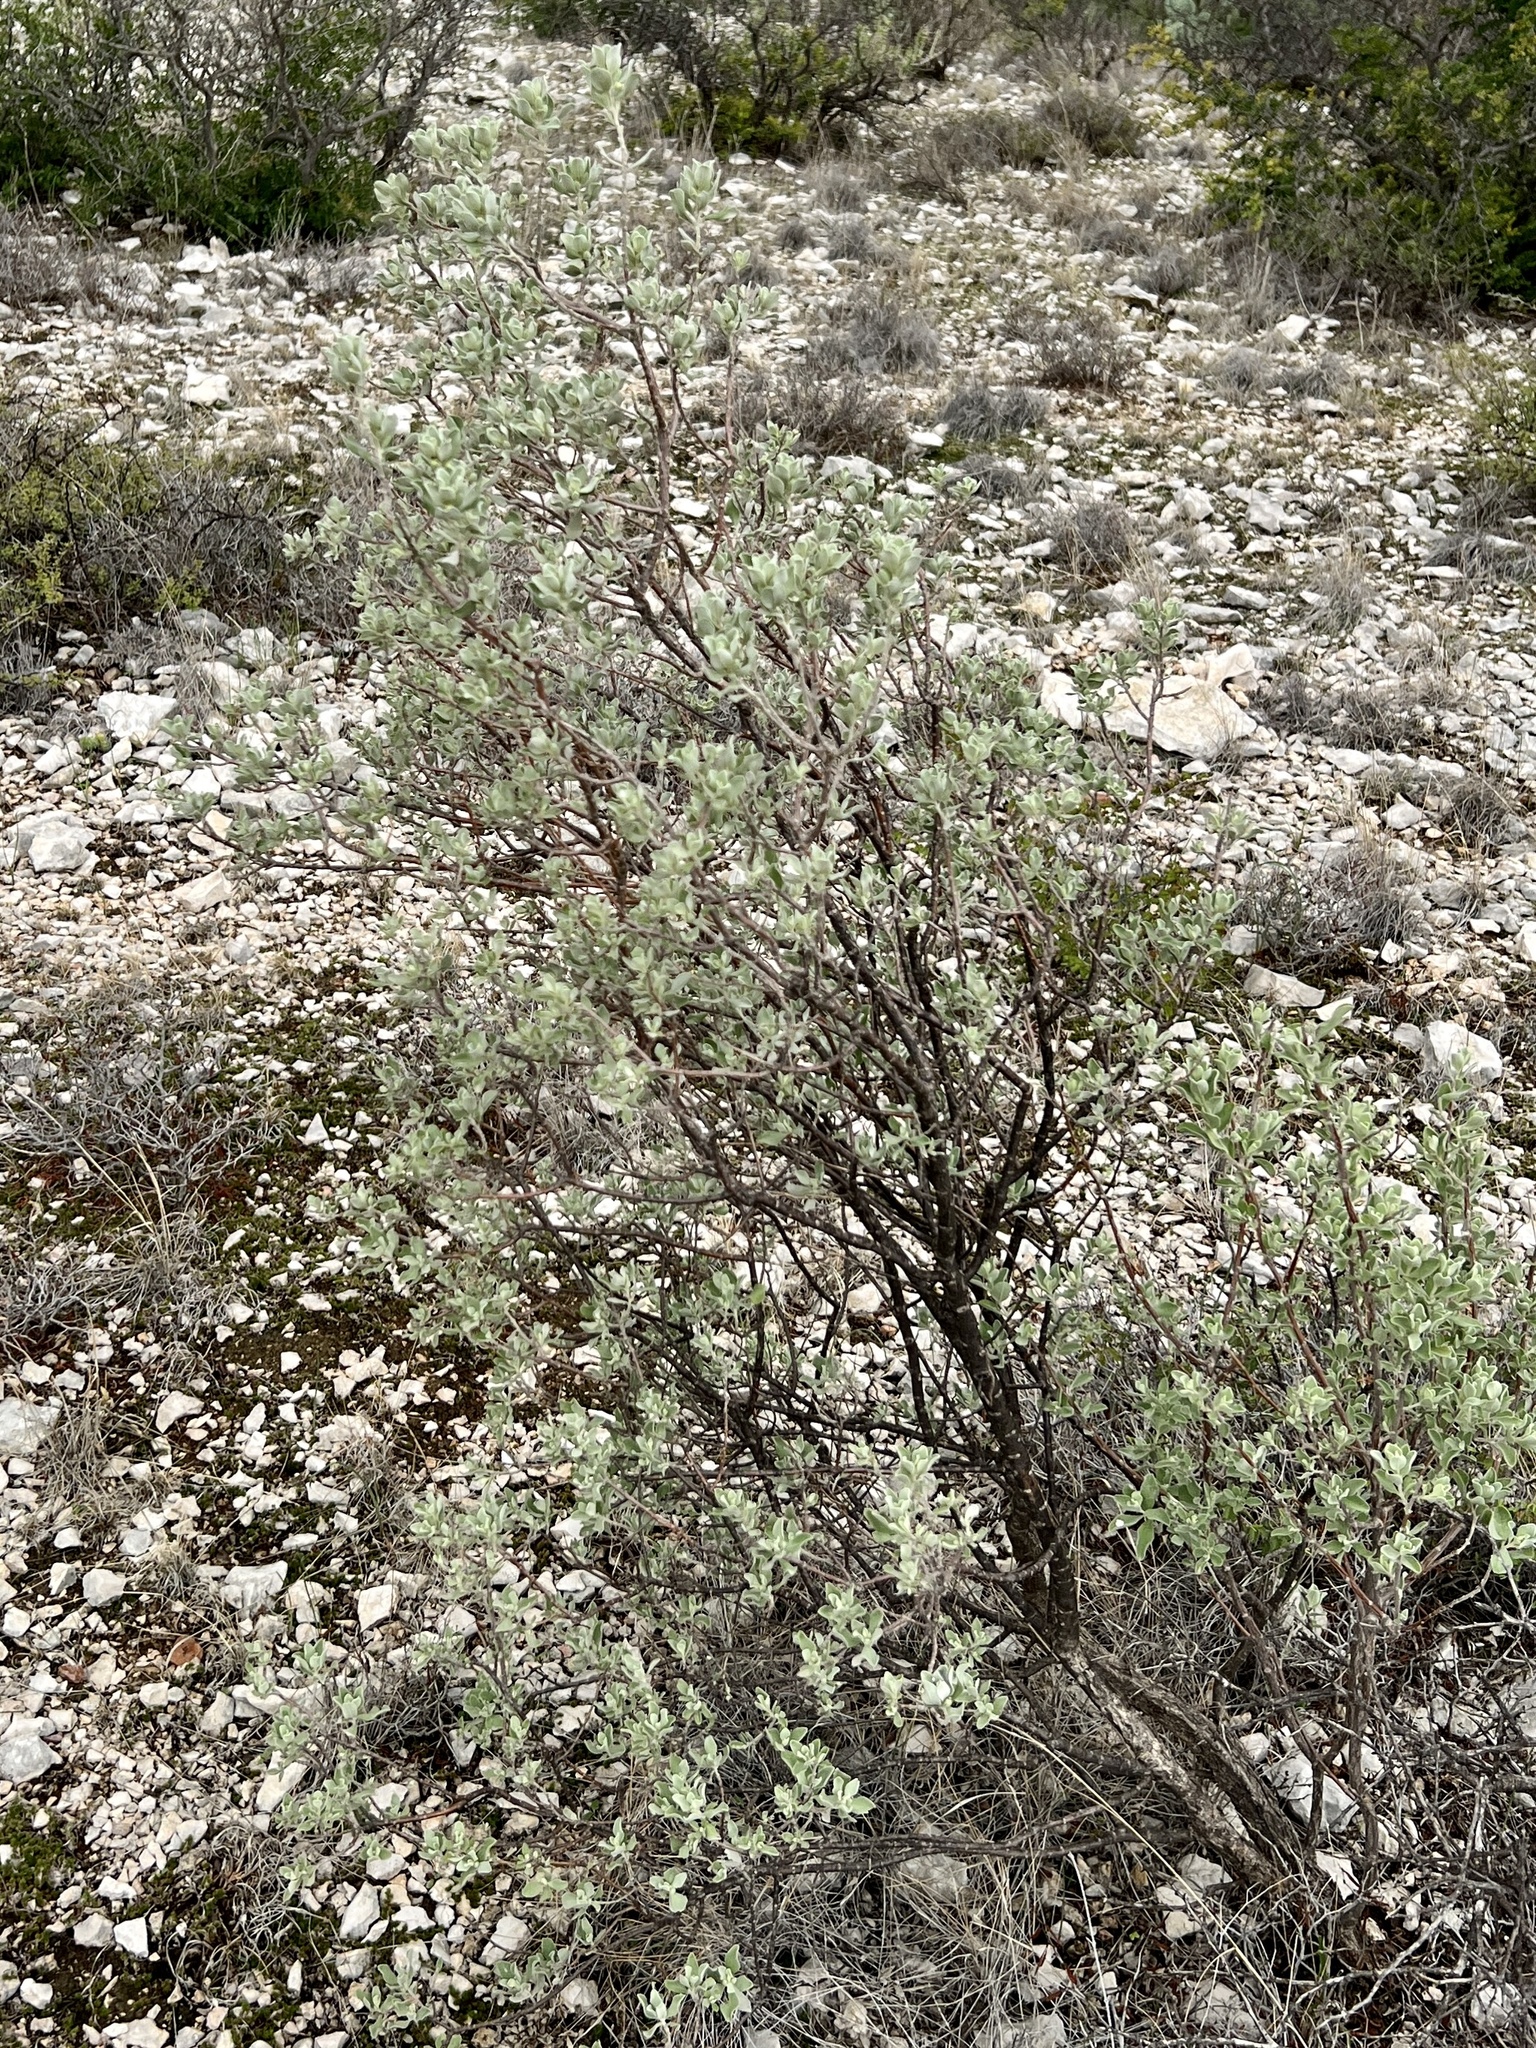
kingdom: Plantae
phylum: Tracheophyta
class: Magnoliopsida
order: Lamiales
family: Scrophulariaceae
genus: Leucophyllum
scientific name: Leucophyllum frutescens
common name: Texas silverleaf
